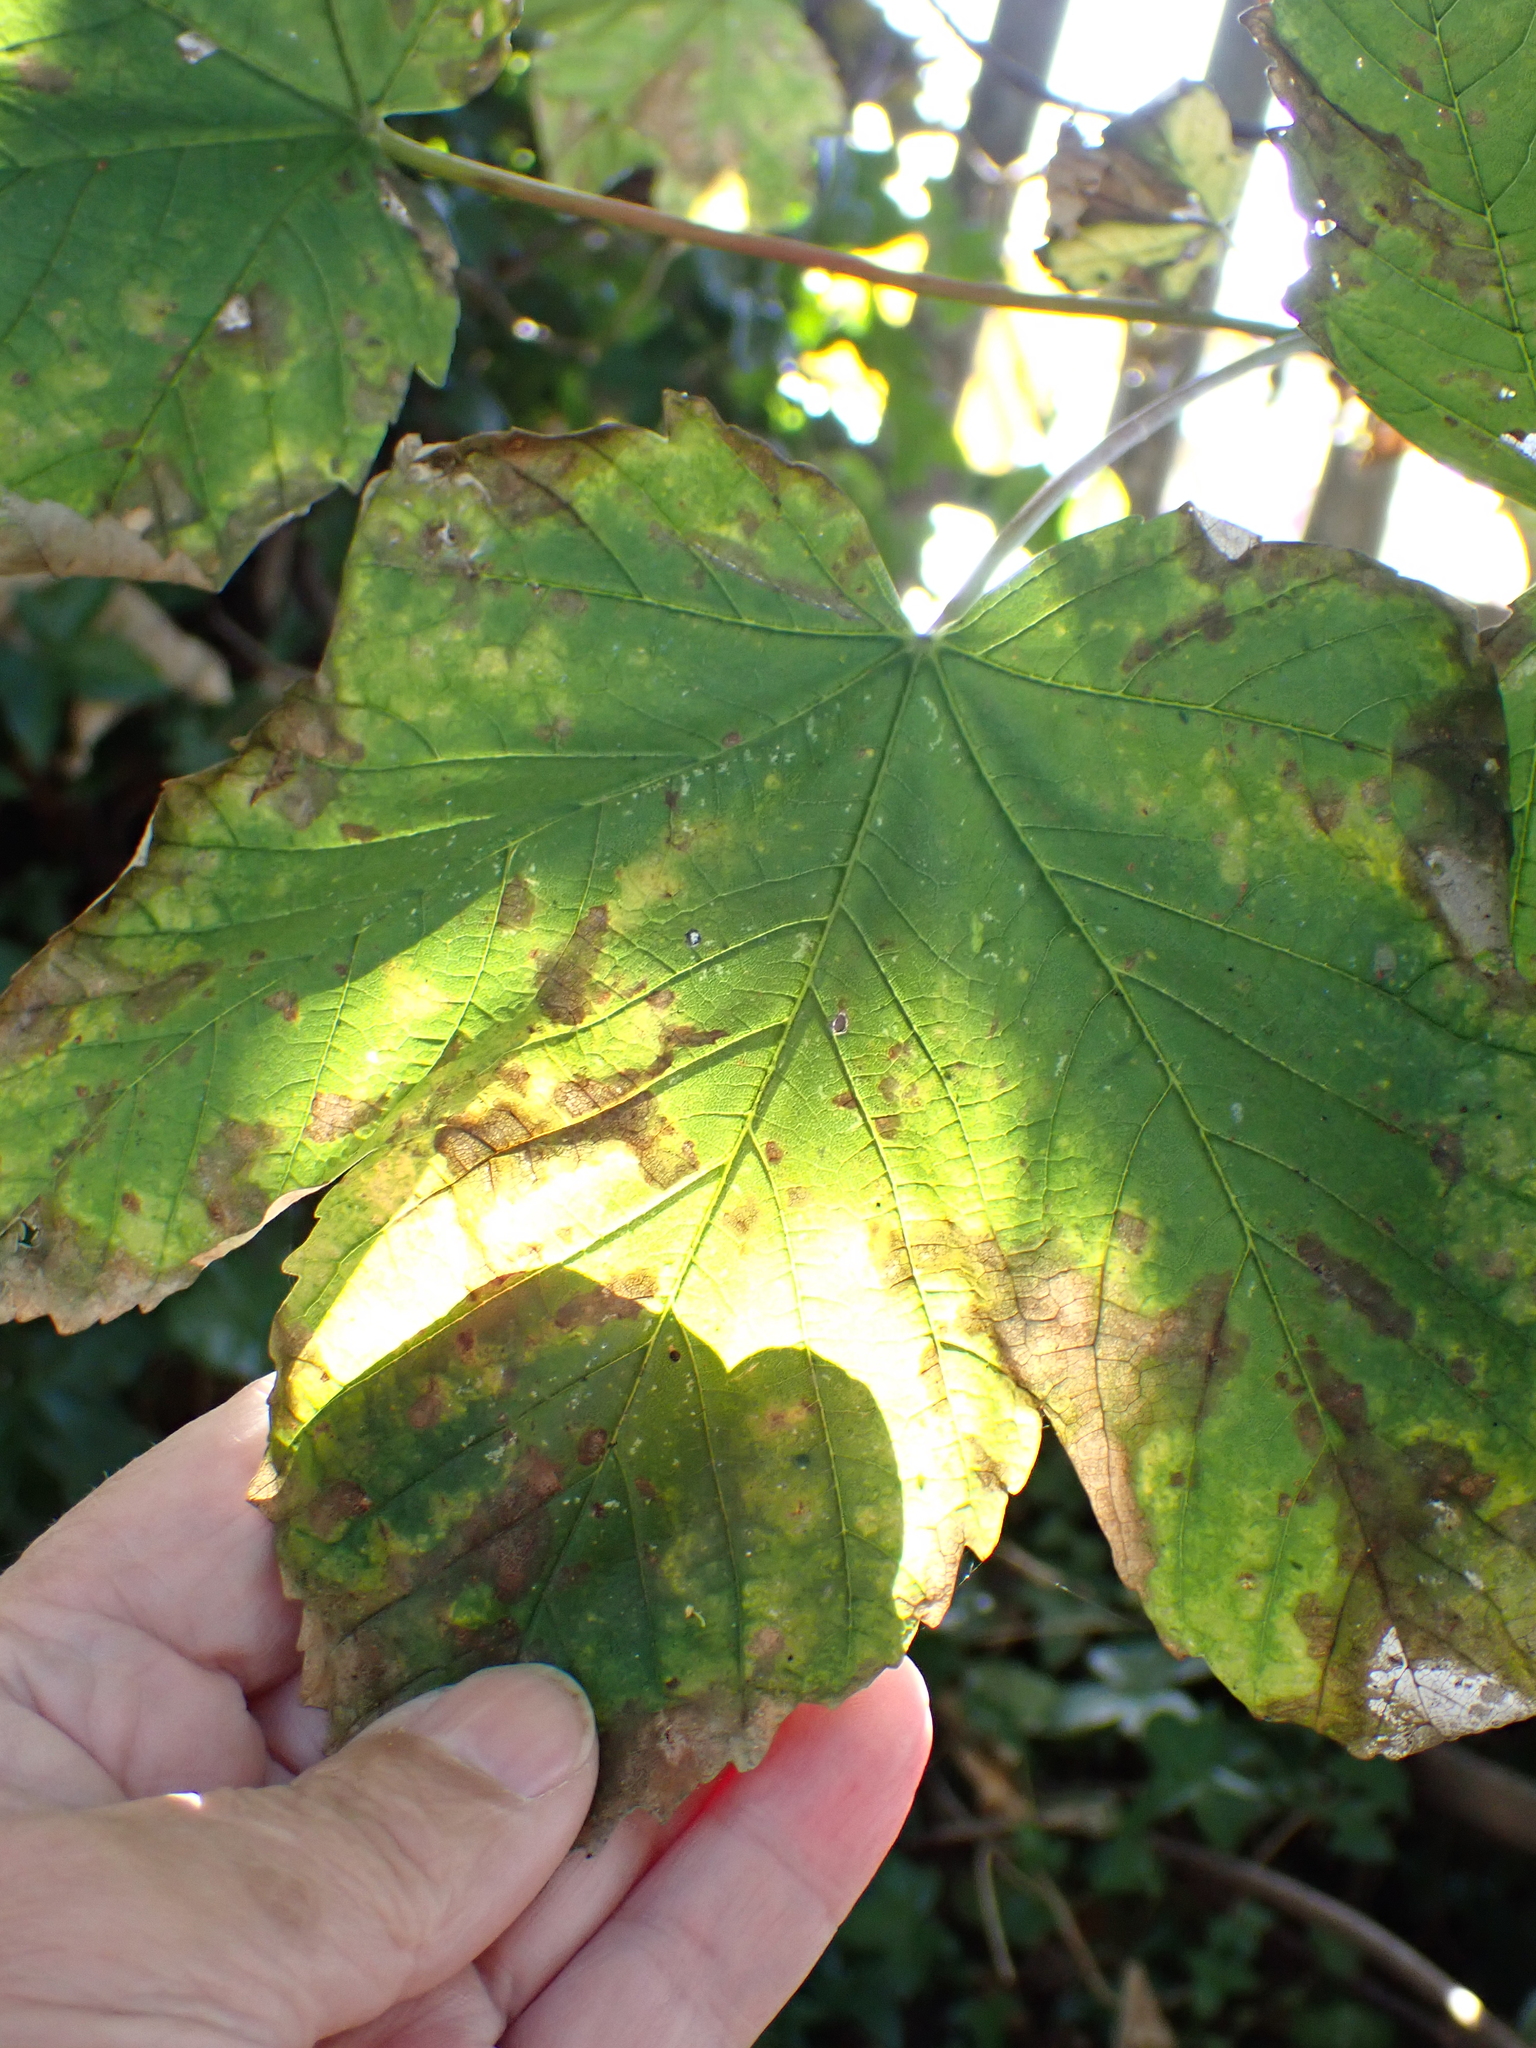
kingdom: Plantae
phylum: Tracheophyta
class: Magnoliopsida
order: Sapindales
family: Sapindaceae
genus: Acer
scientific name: Acer pseudoplatanus
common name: Sycamore
